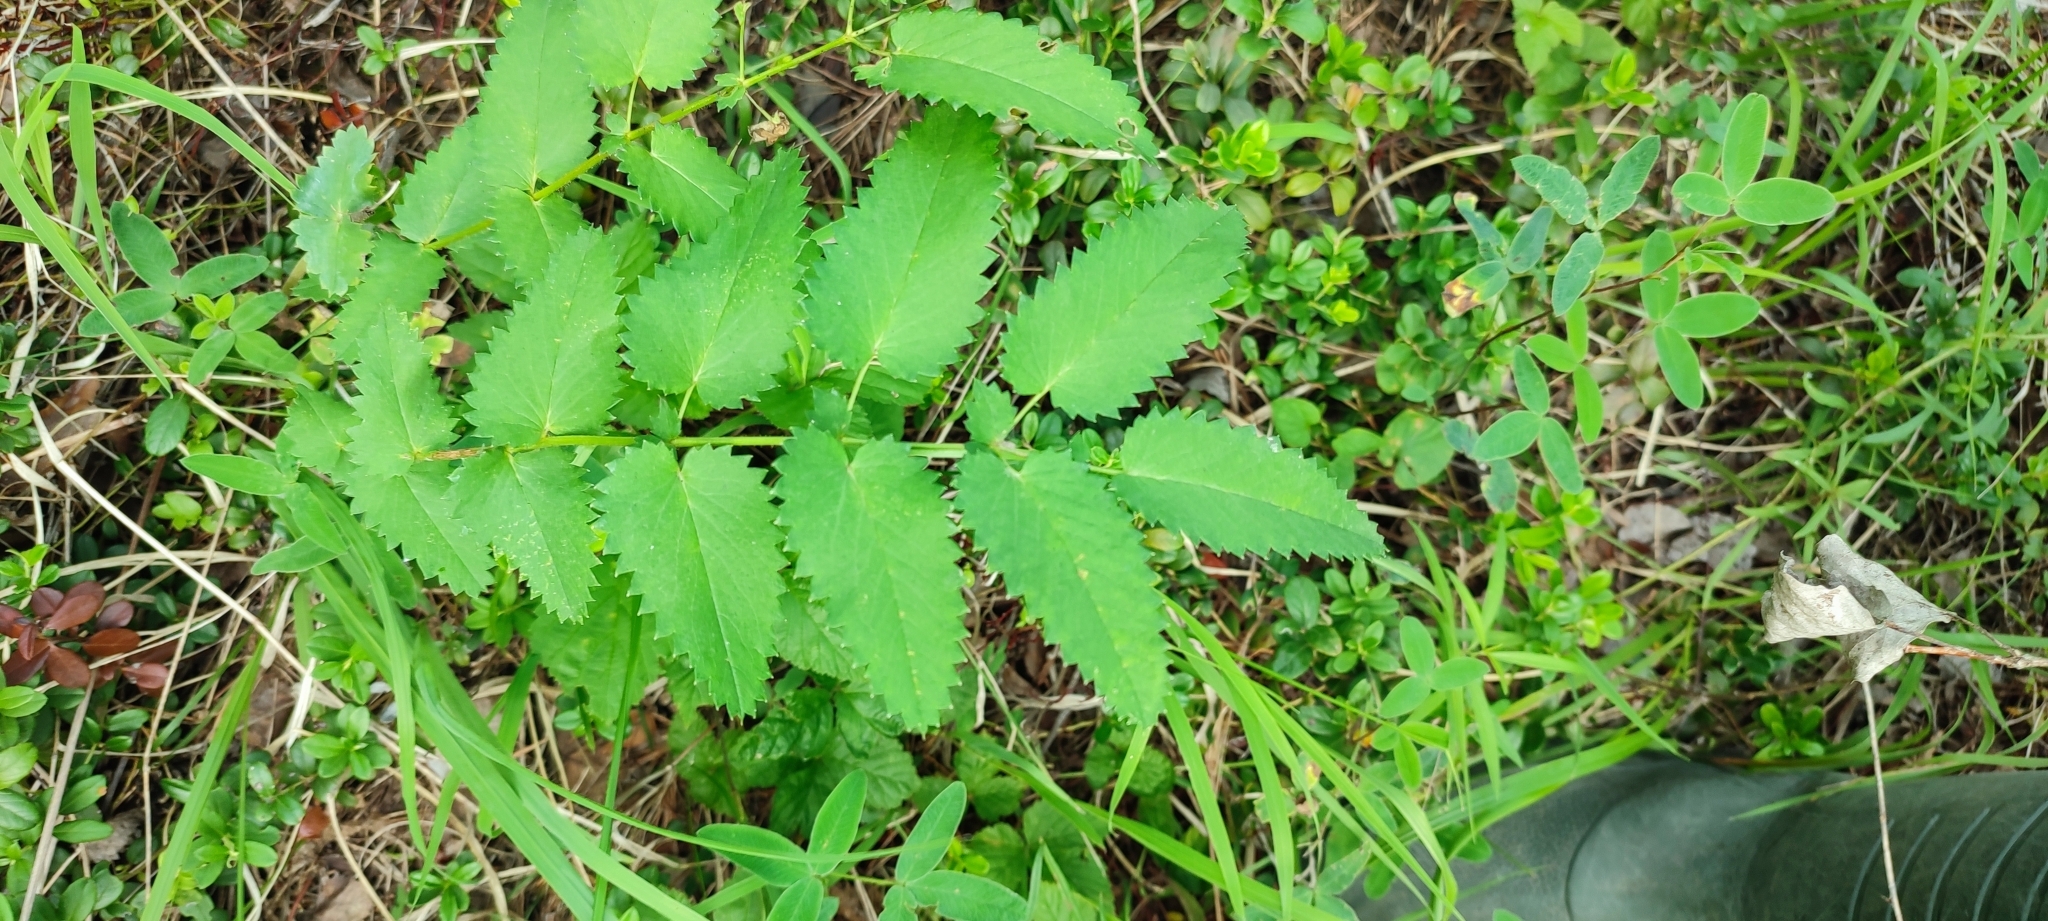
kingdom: Plantae
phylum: Tracheophyta
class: Magnoliopsida
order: Rosales
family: Rosaceae
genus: Sanguisorba
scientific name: Sanguisorba officinalis
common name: Great burnet
